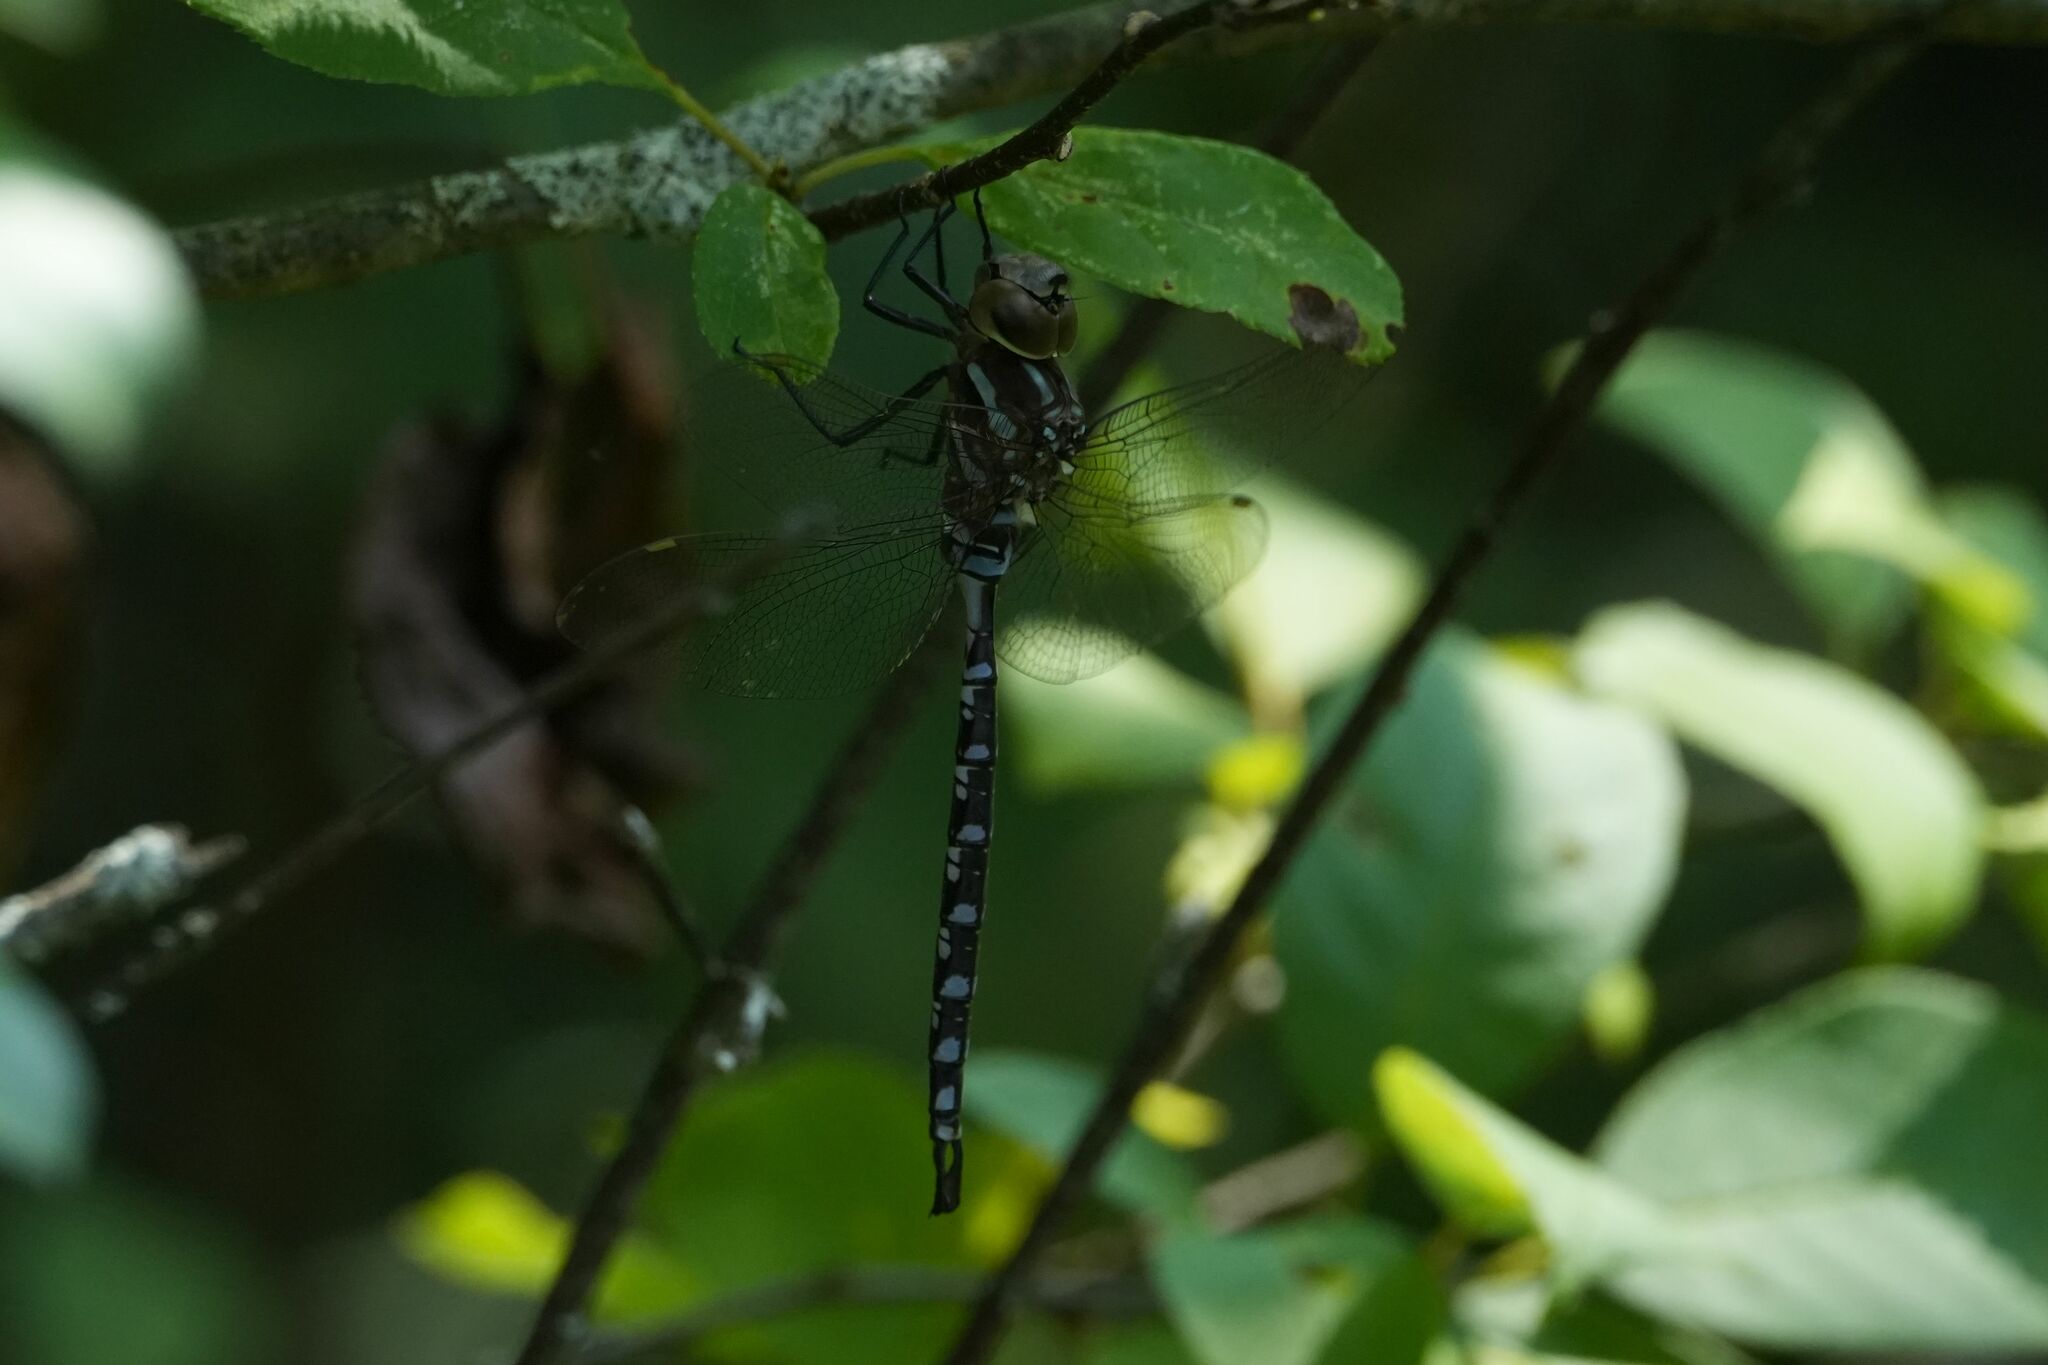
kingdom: Animalia
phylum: Arthropoda
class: Insecta
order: Odonata
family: Aeshnidae
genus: Aeshna
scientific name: Aeshna constricta
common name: Lance-tipped darner
